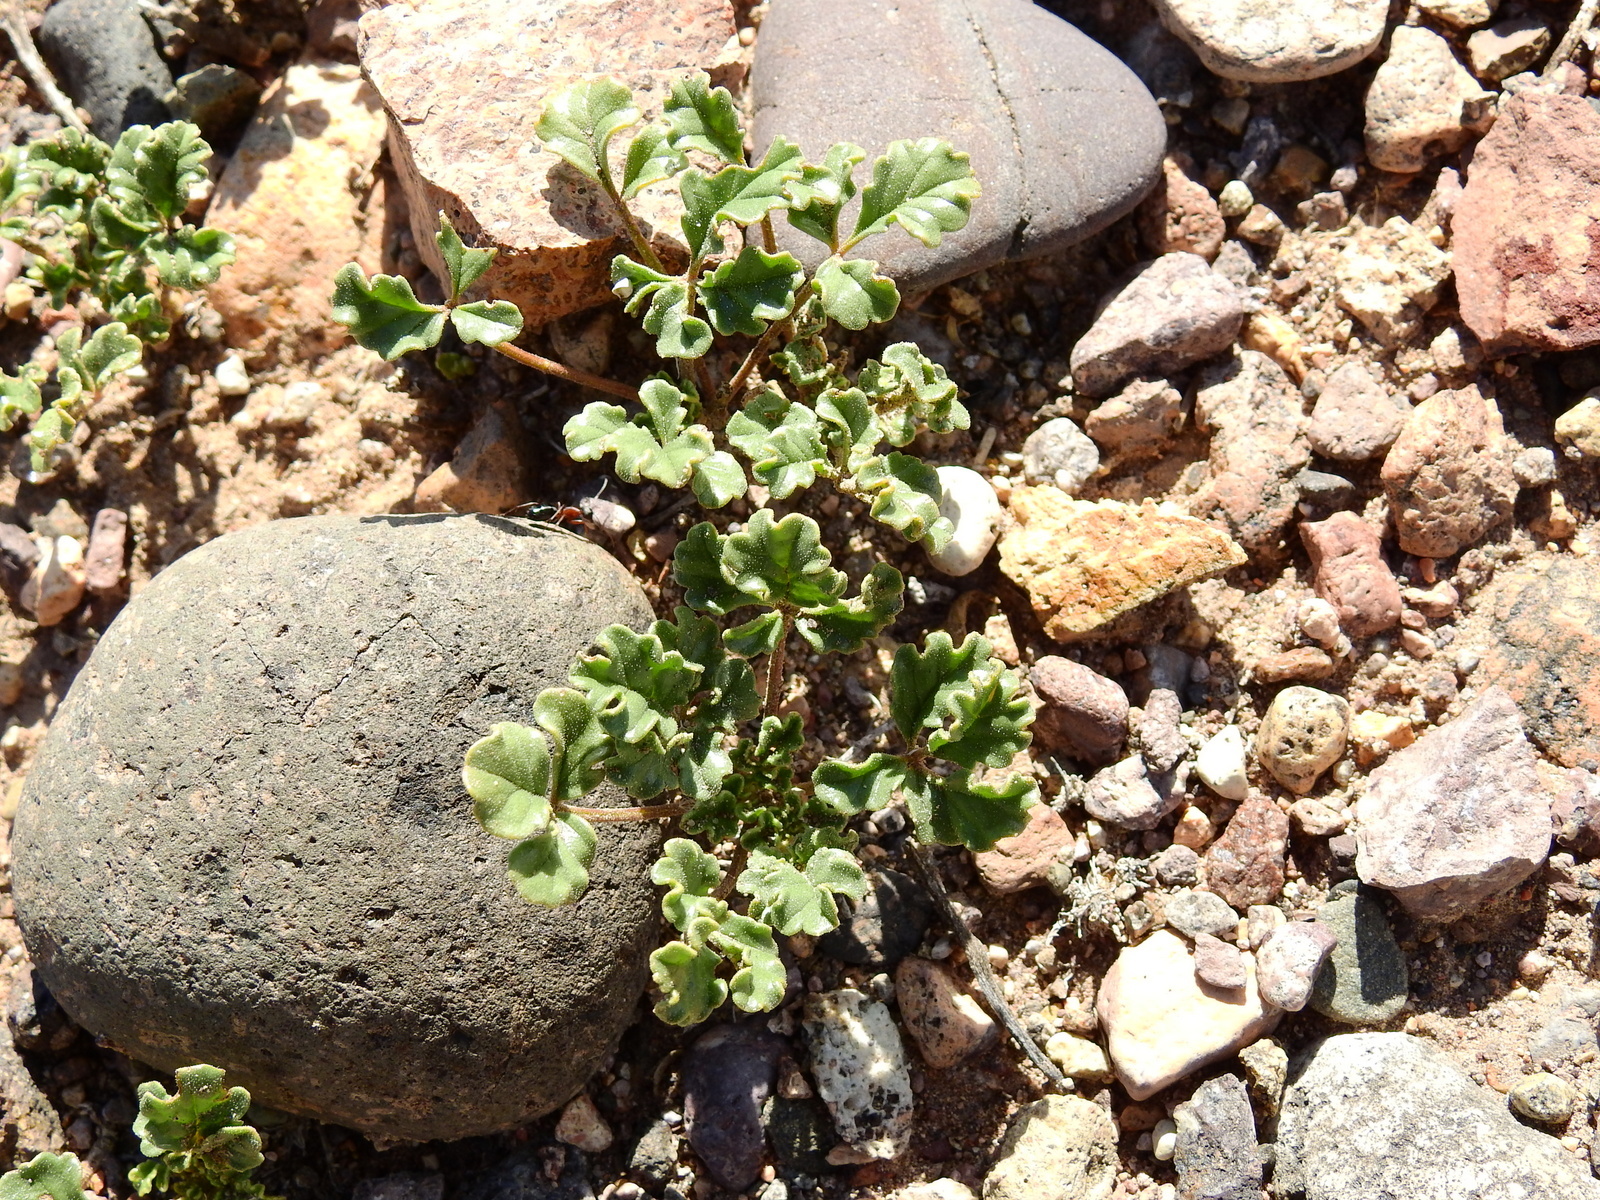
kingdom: Plantae
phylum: Tracheophyta
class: Magnoliopsida
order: Lamiales
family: Bignoniaceae
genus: Argylia
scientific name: Argylia uspallatensis
